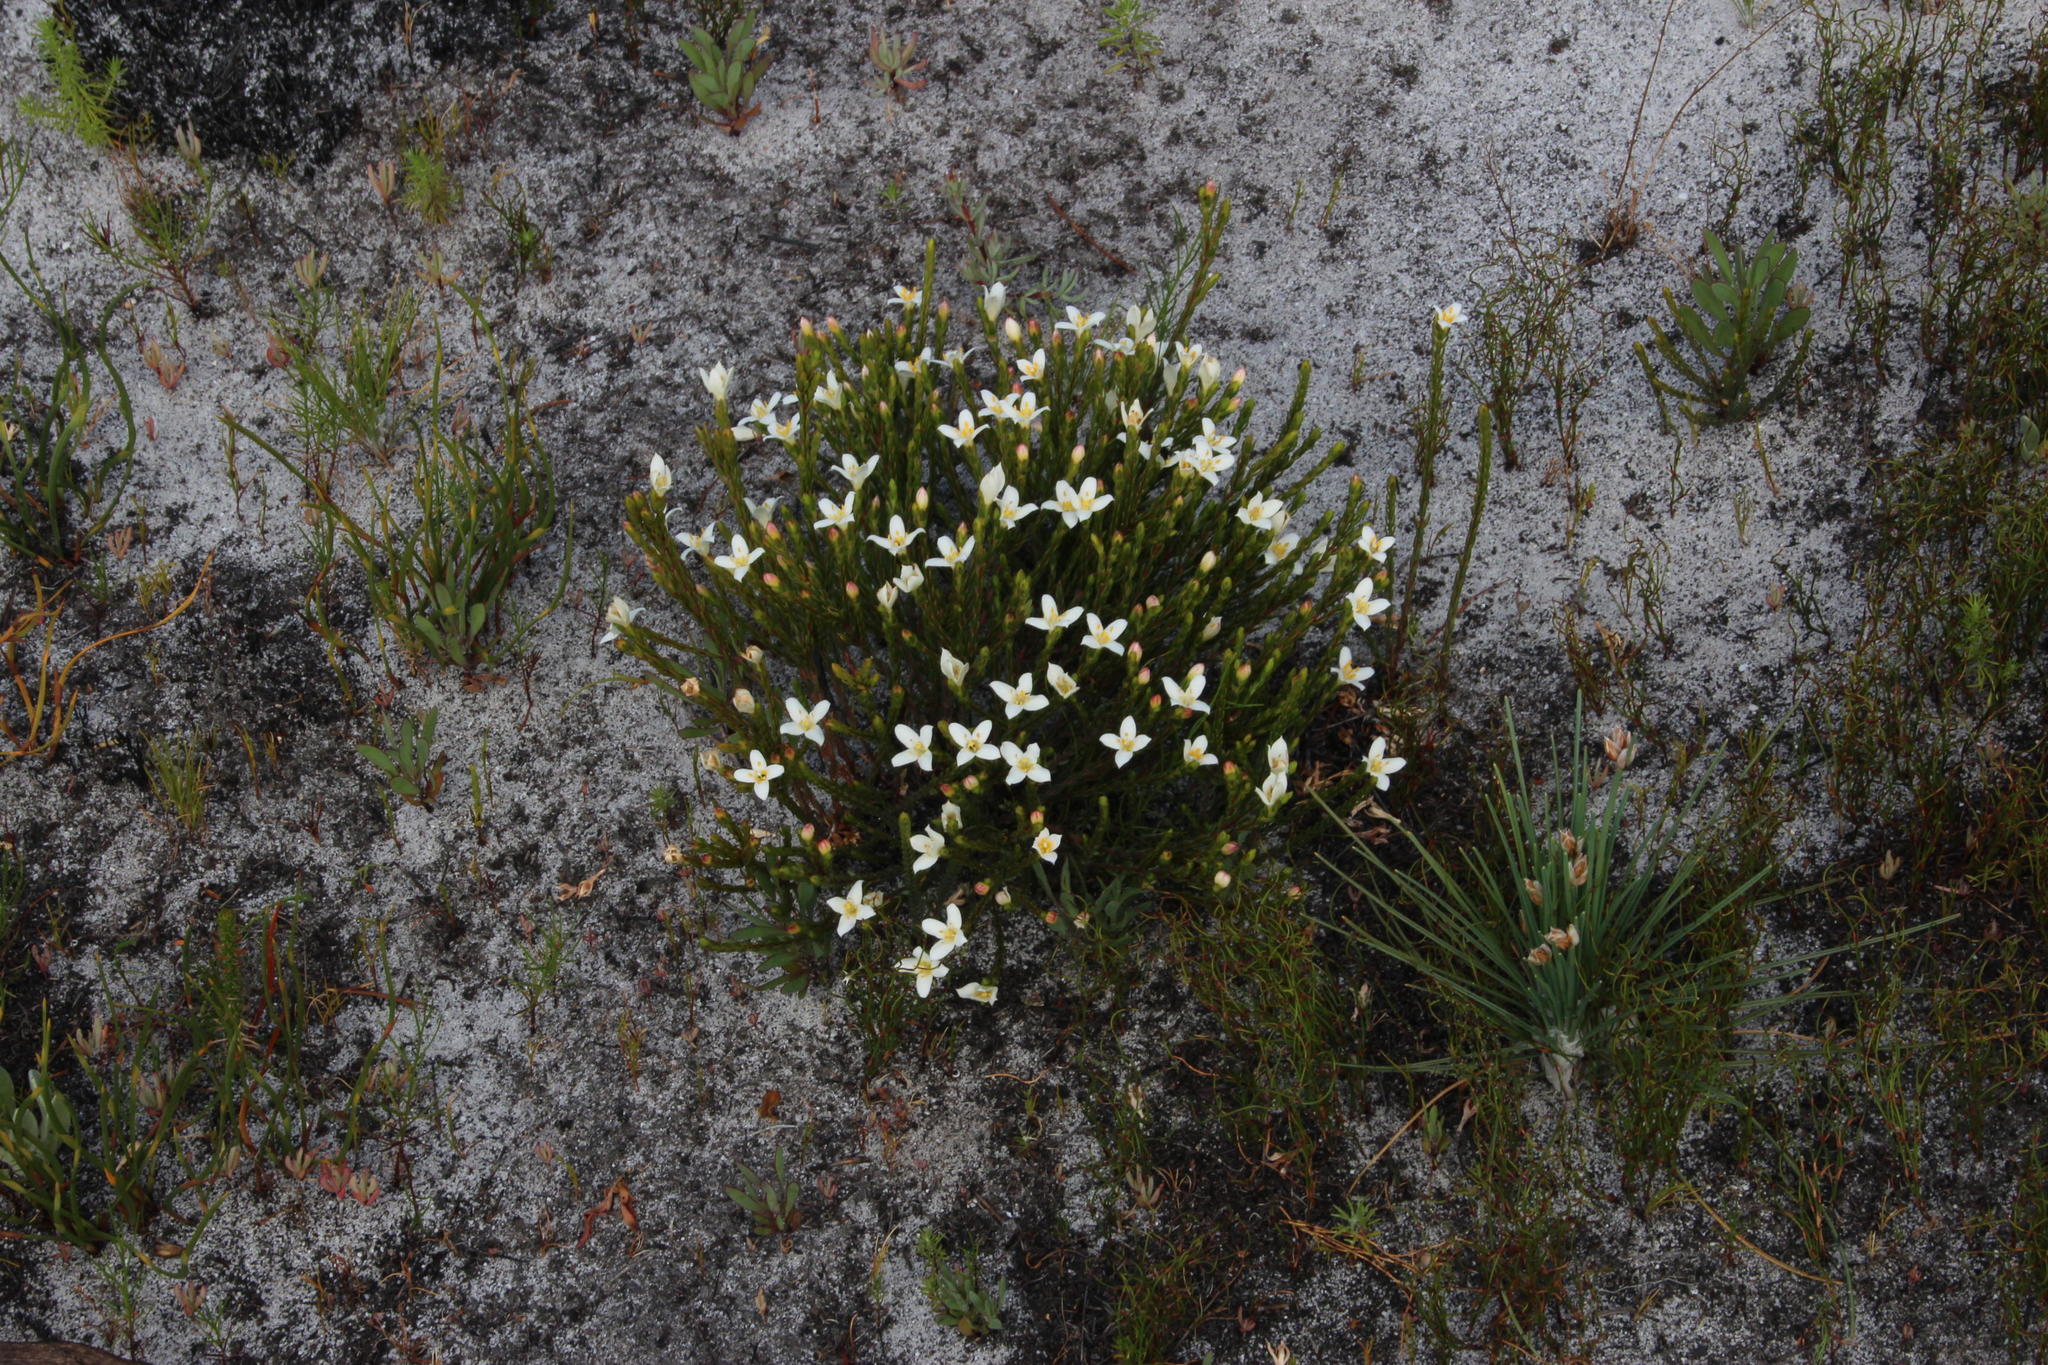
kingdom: Plantae
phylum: Tracheophyta
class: Magnoliopsida
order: Malvales
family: Thymelaeaceae
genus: Lachnaea
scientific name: Lachnaea grandiflora
